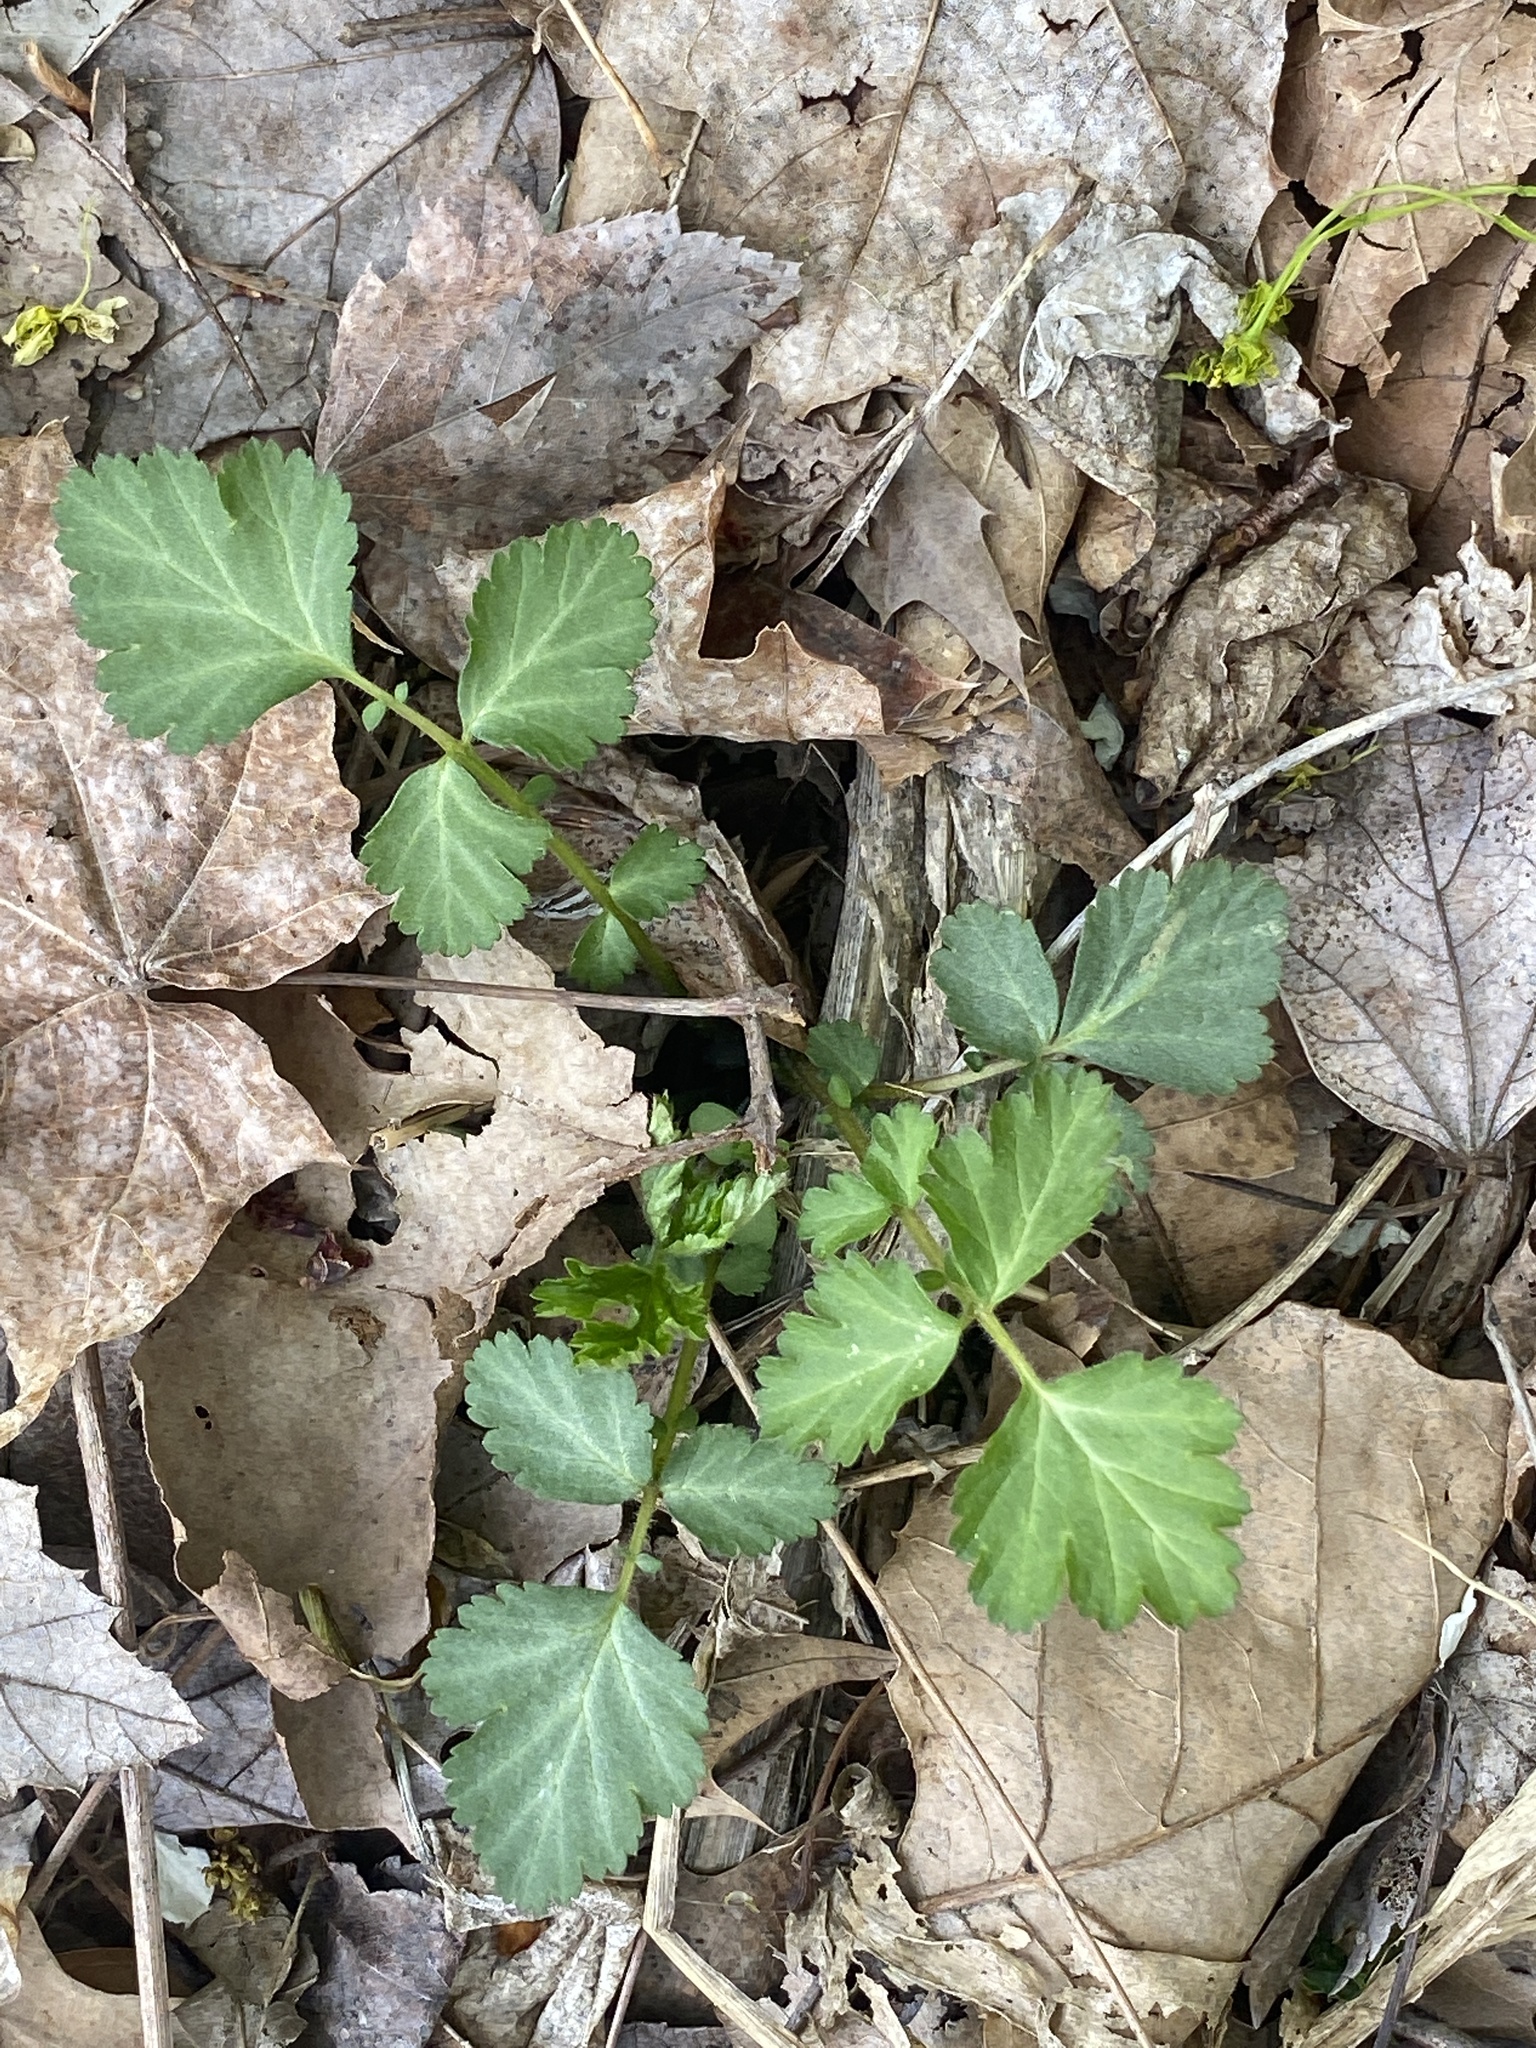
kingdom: Plantae
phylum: Tracheophyta
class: Magnoliopsida
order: Rosales
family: Rosaceae
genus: Geum
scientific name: Geum canadense
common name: White avens
